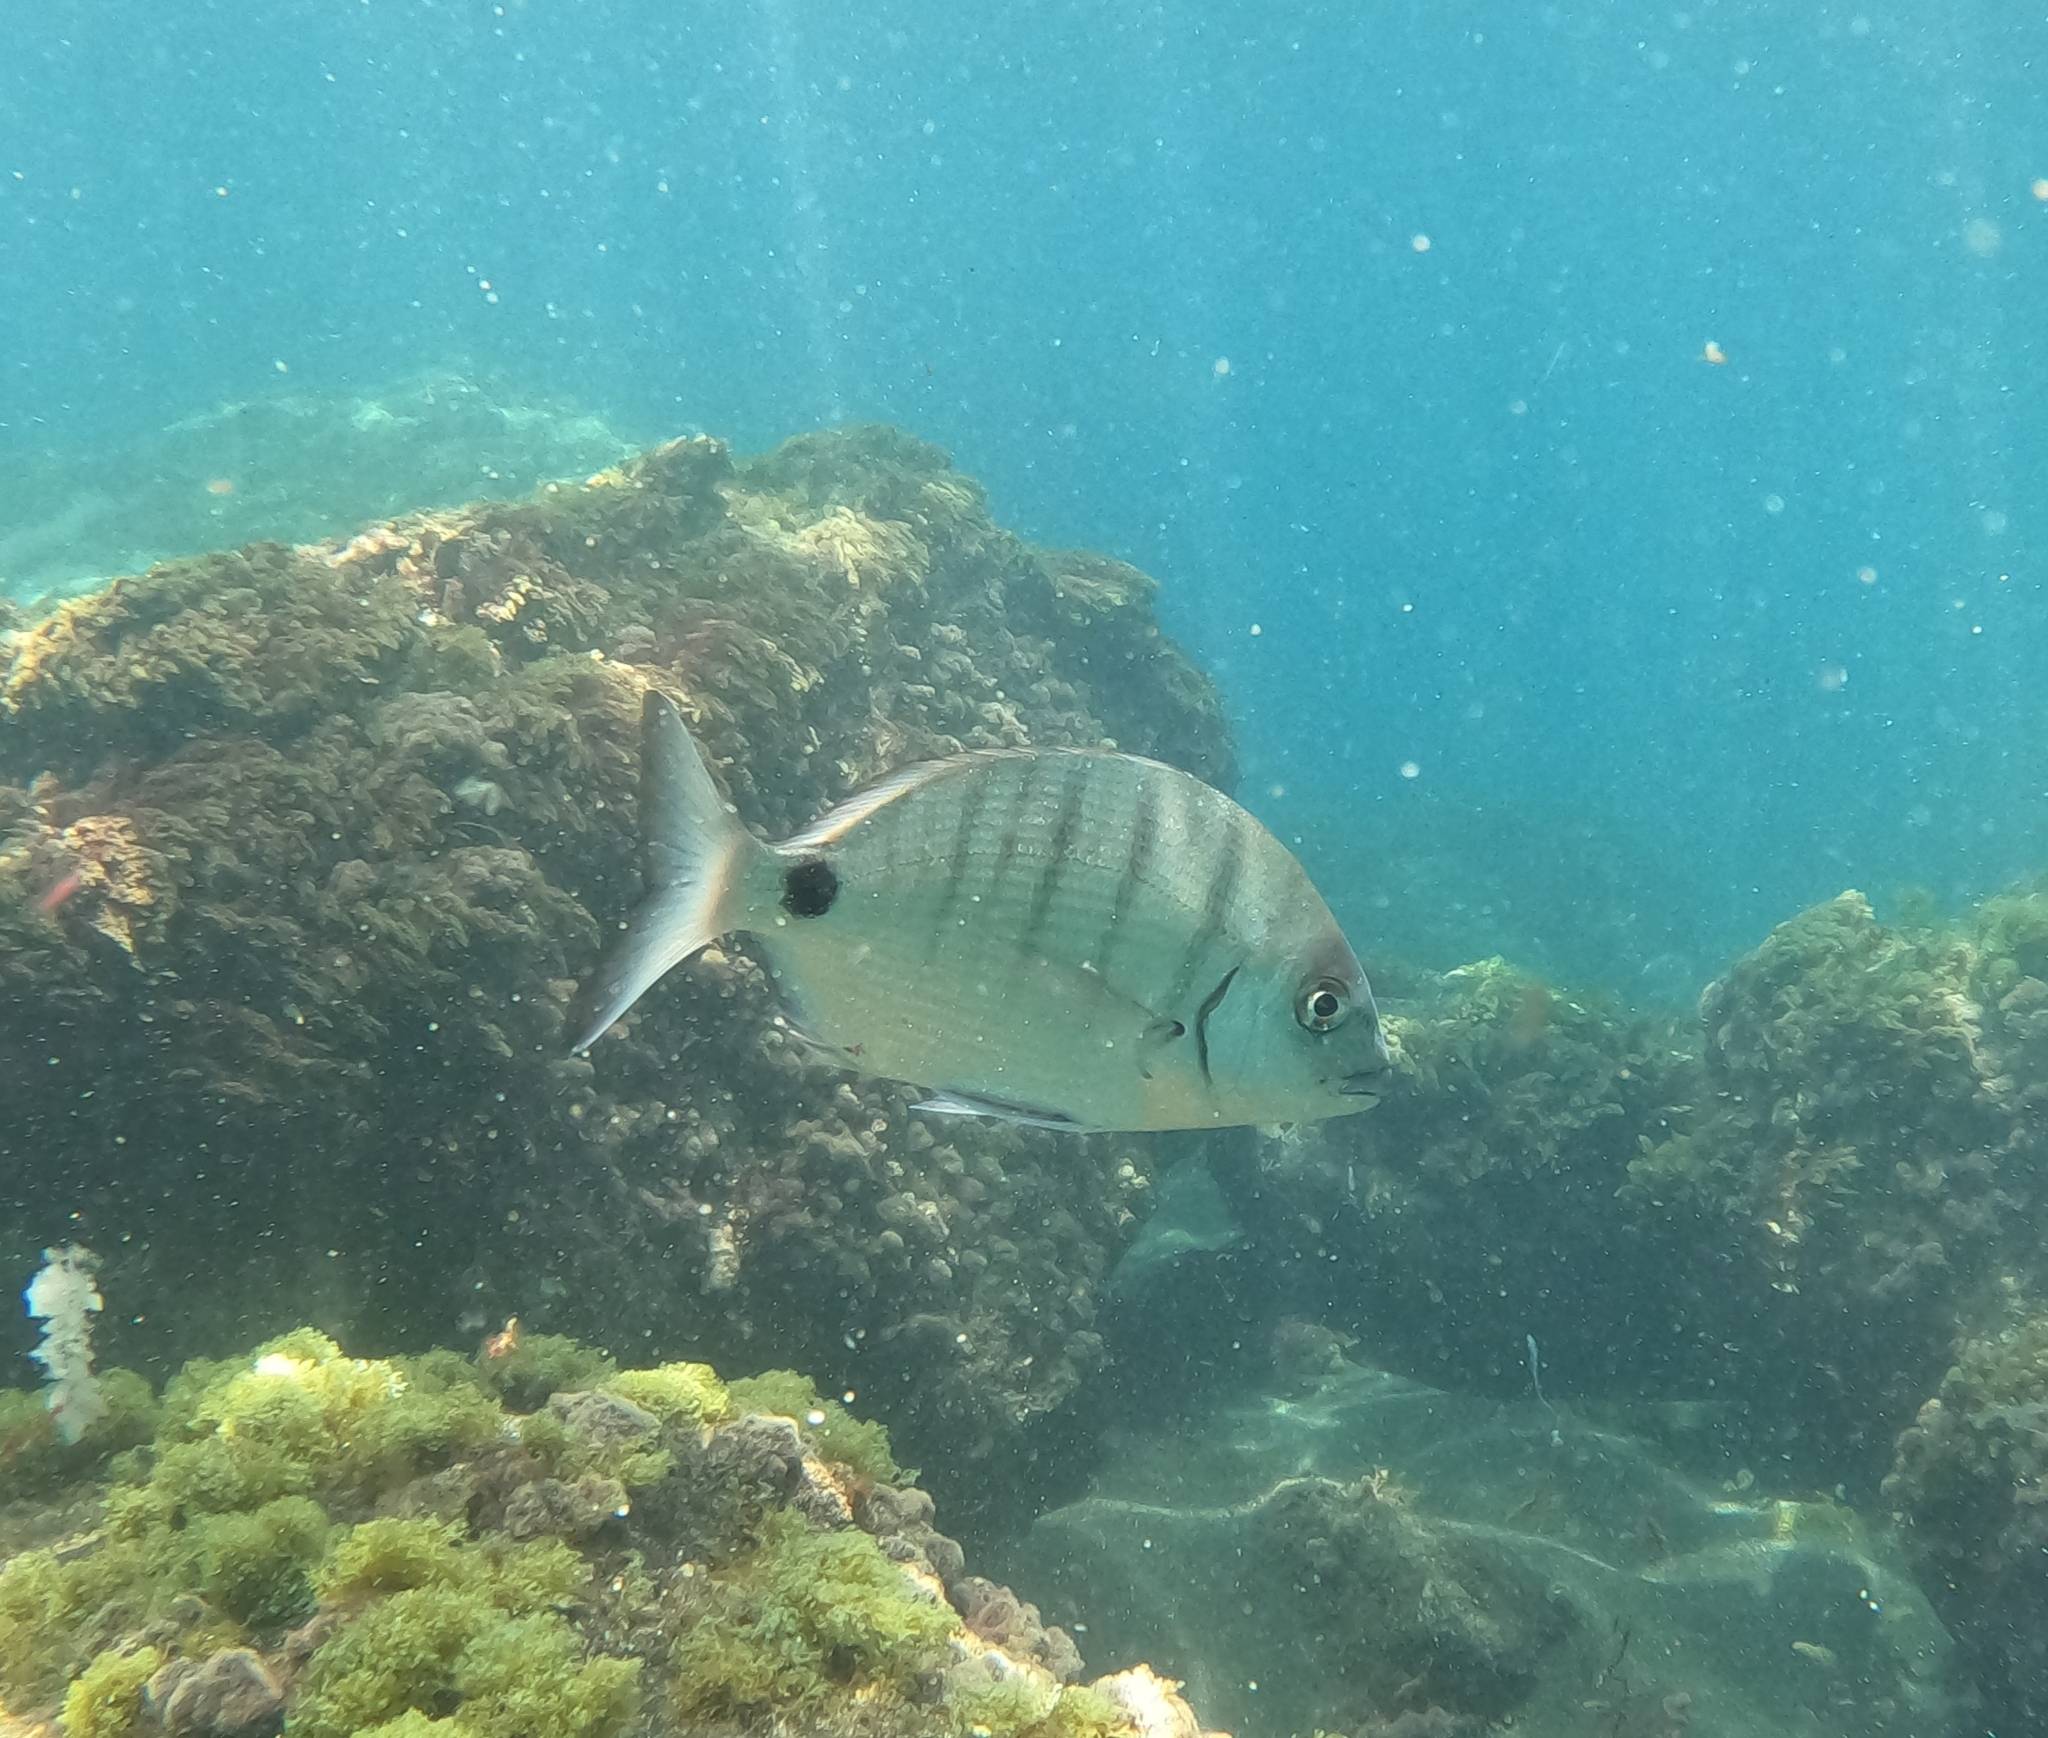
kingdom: Animalia
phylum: Chordata
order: Perciformes
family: Sparidae
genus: Diplodus
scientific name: Diplodus cadenati
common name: Moroccan white seabream
